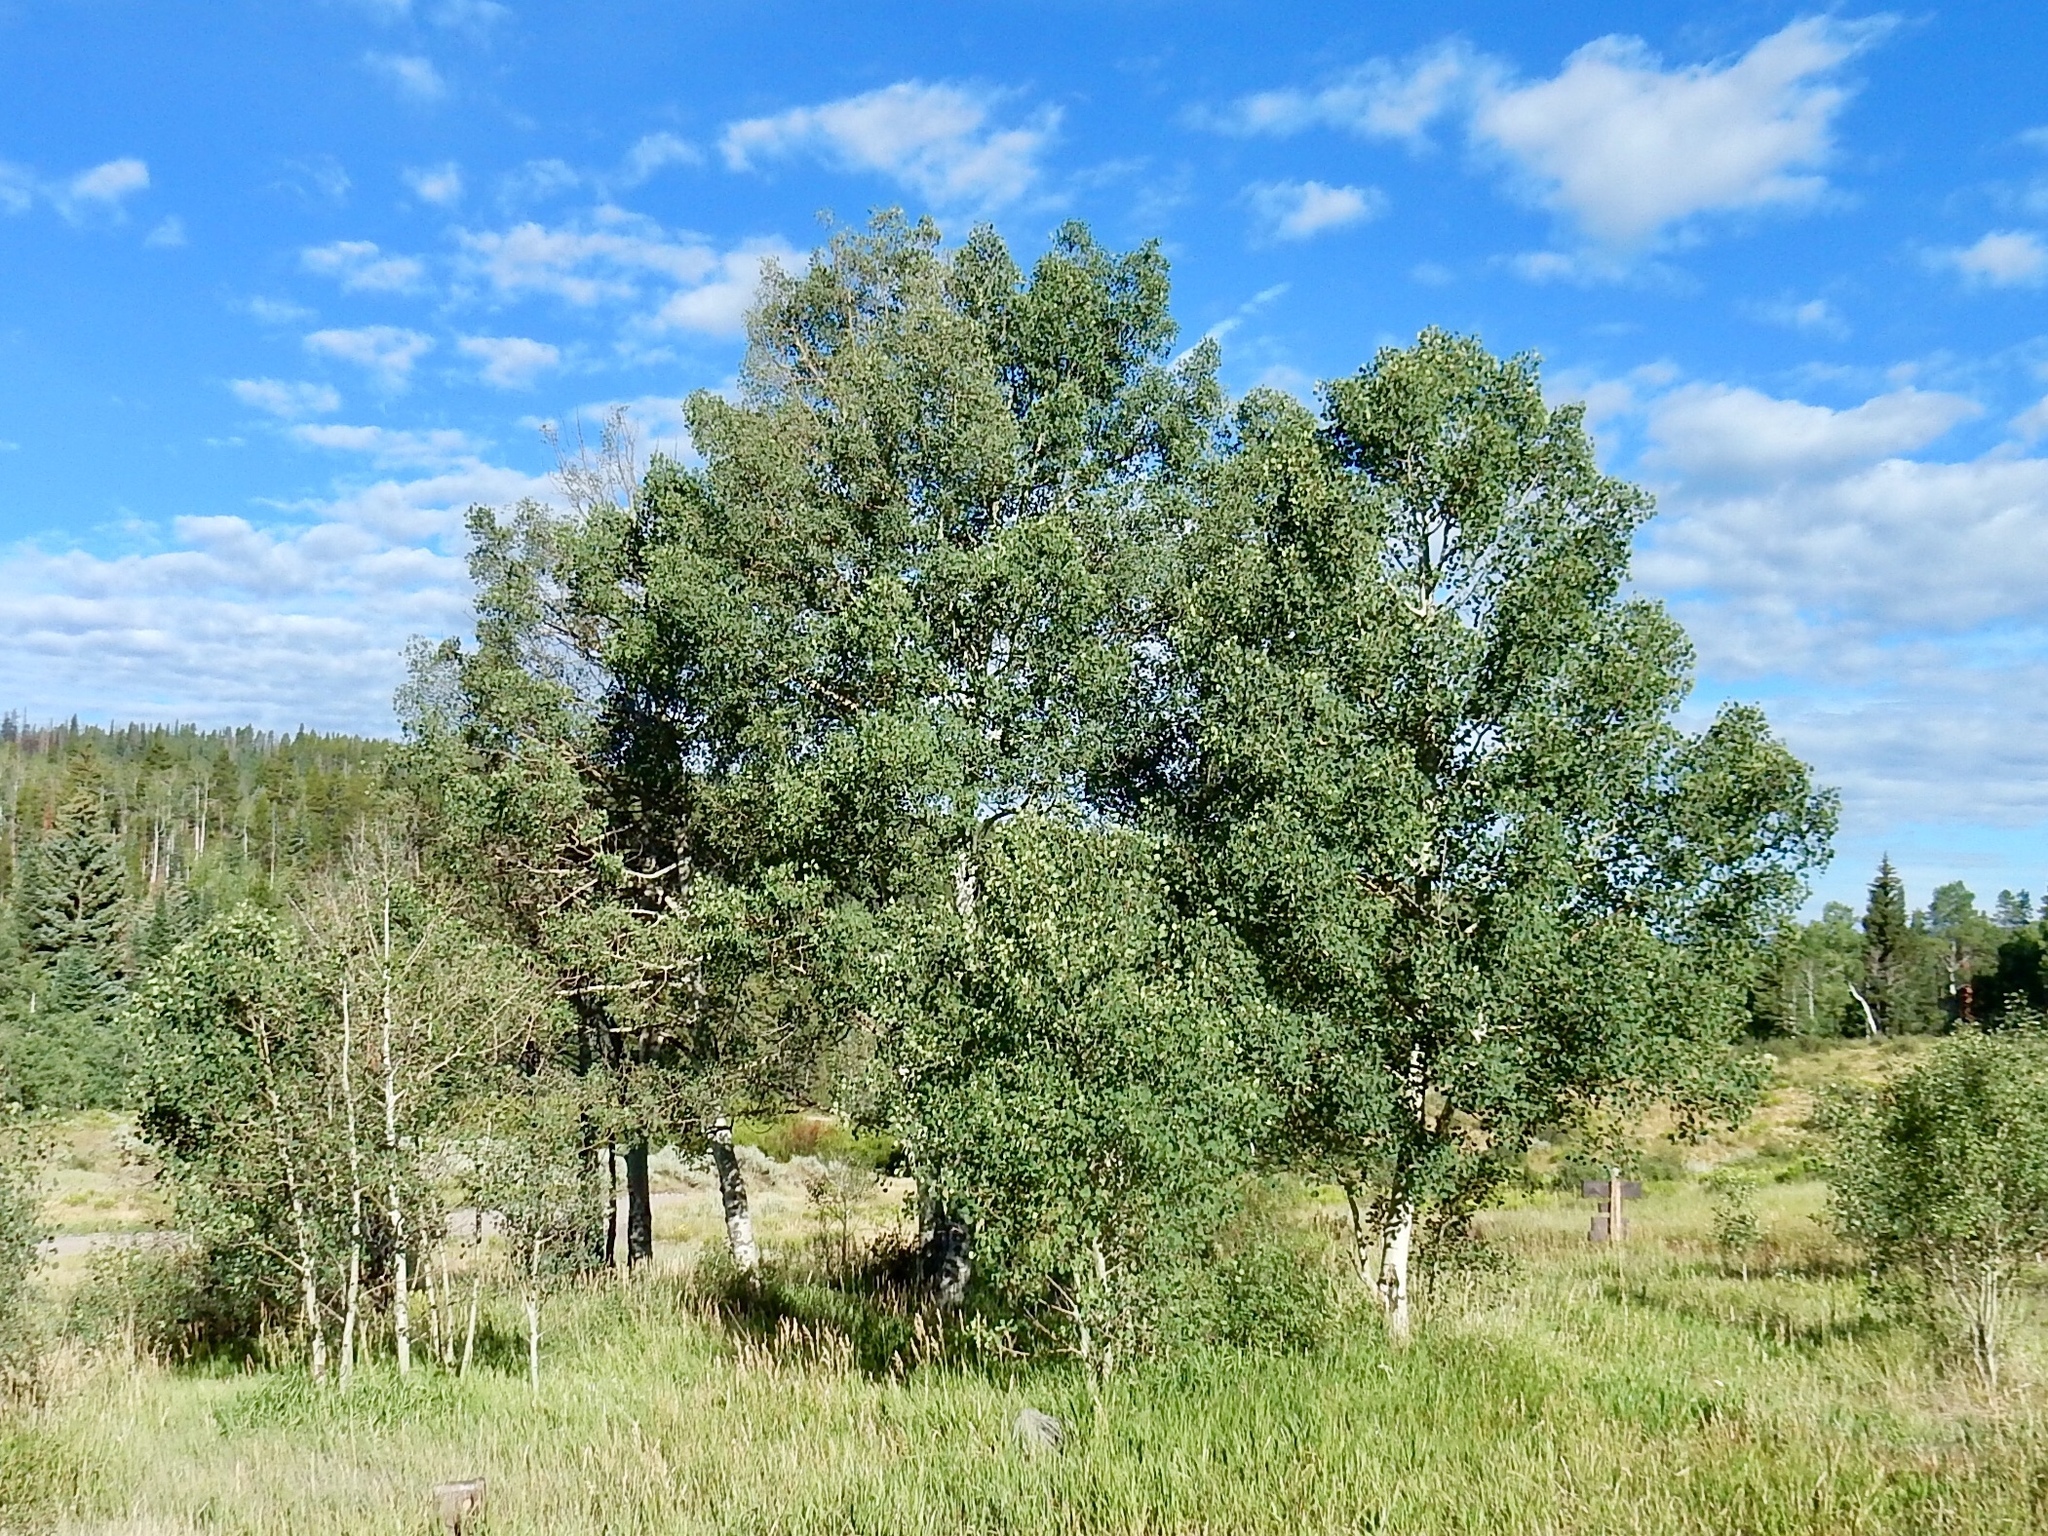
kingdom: Plantae
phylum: Tracheophyta
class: Magnoliopsida
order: Malpighiales
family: Salicaceae
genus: Populus
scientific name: Populus tremuloides
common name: Quaking aspen
